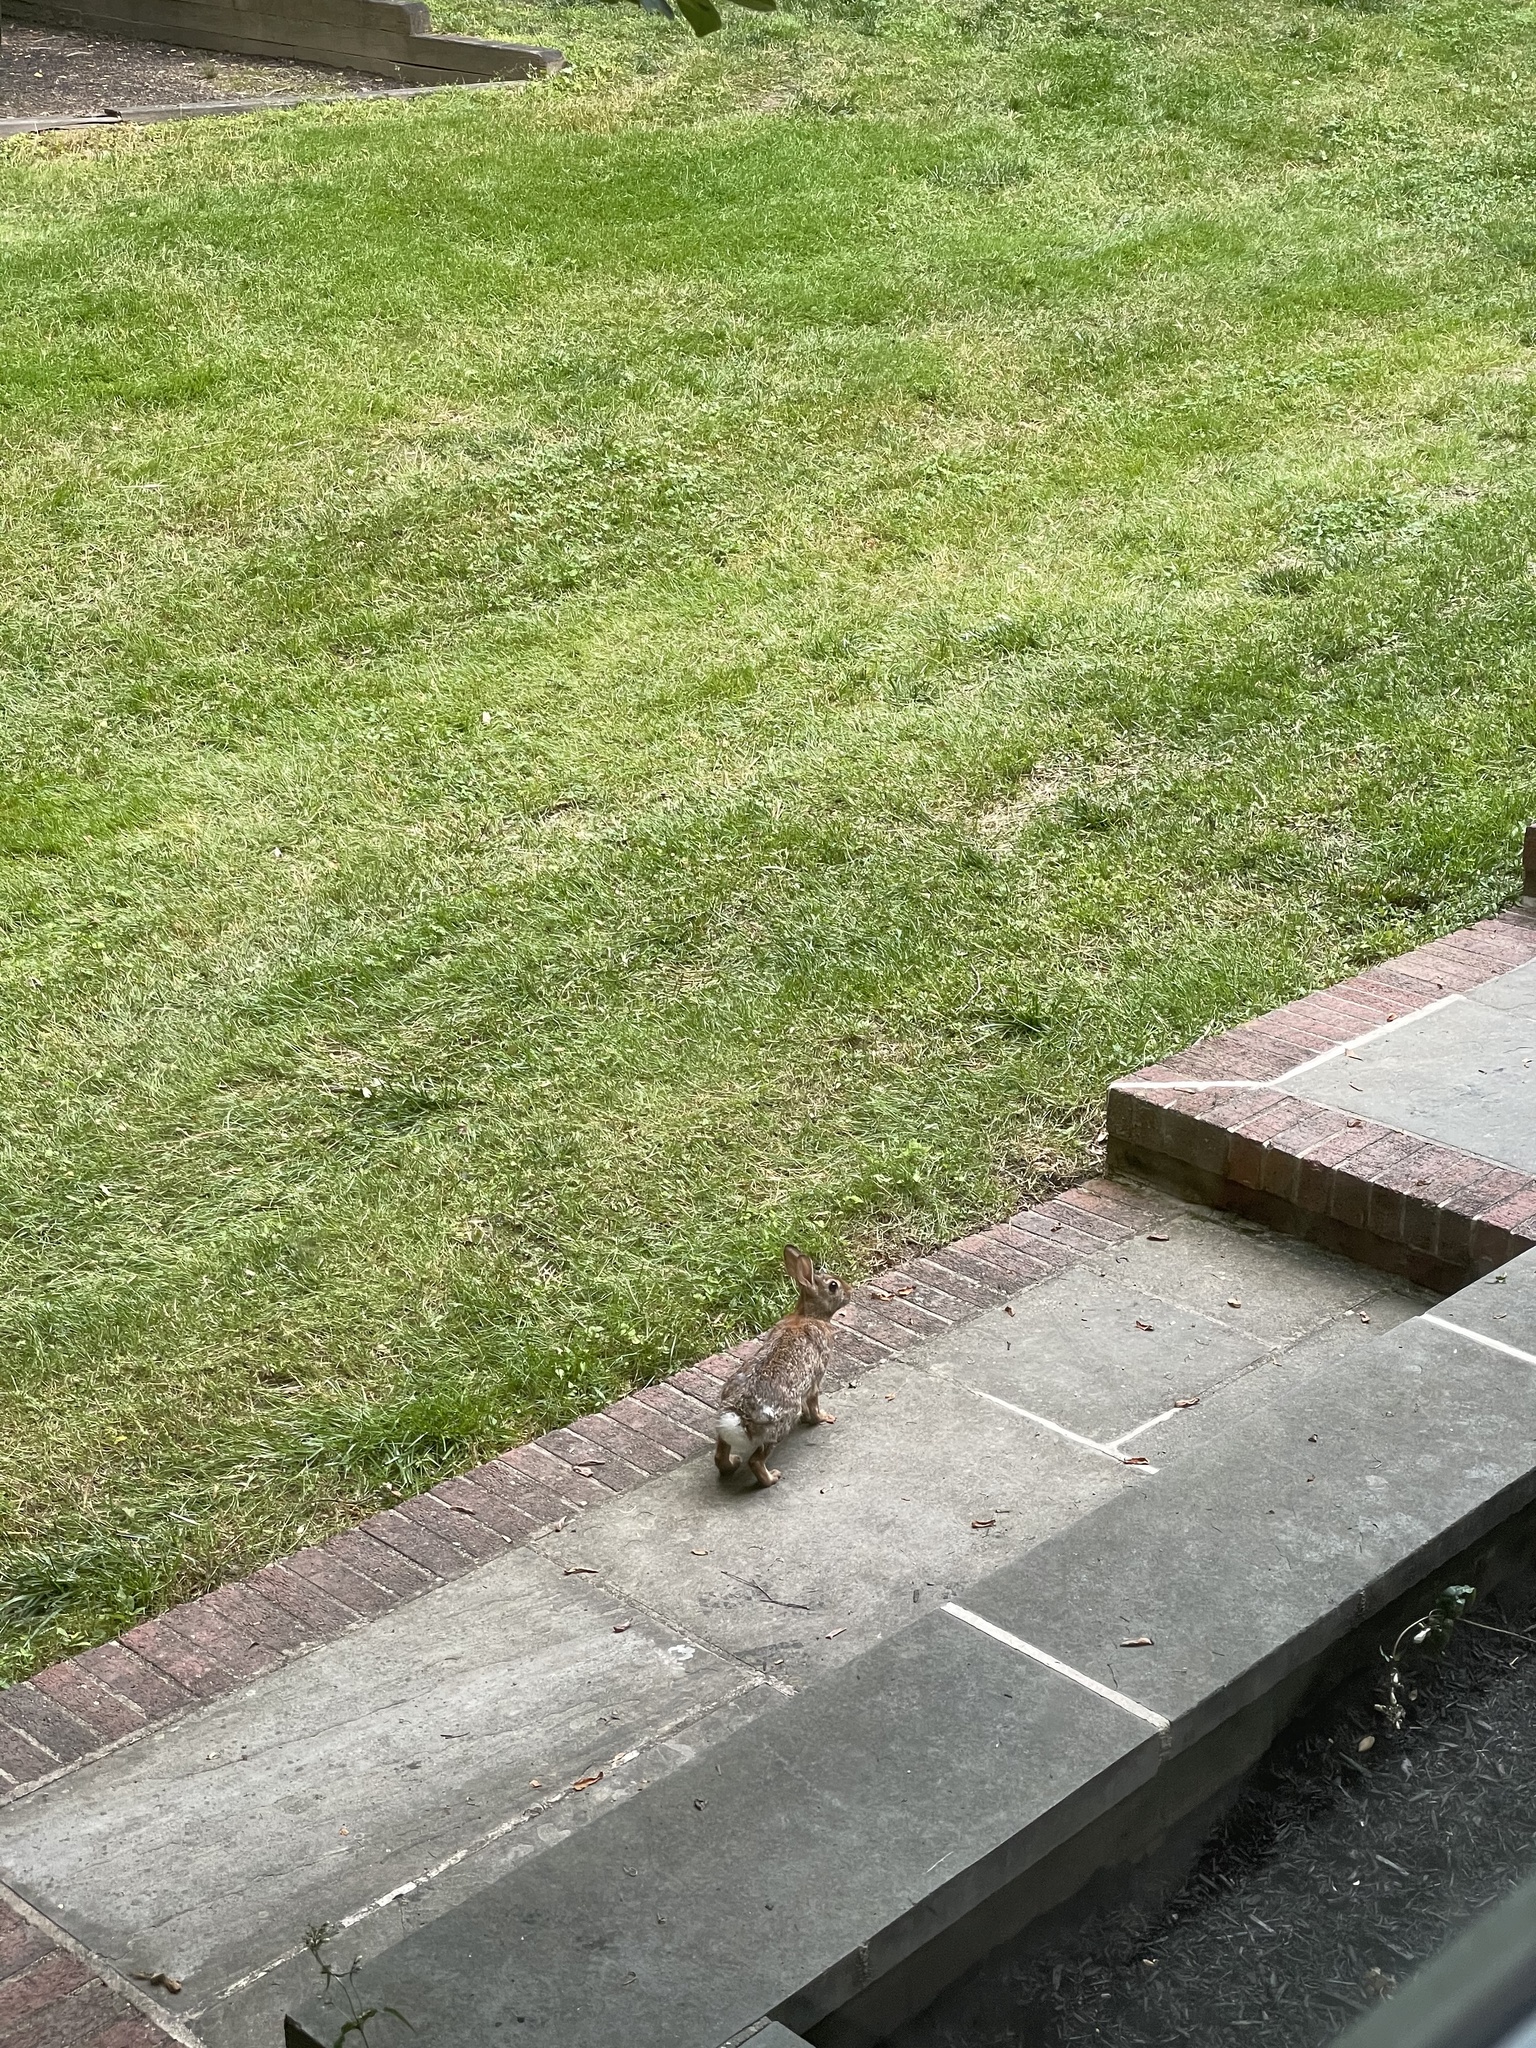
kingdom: Animalia
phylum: Chordata
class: Mammalia
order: Lagomorpha
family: Leporidae
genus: Sylvilagus
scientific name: Sylvilagus floridanus
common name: Eastern cottontail
